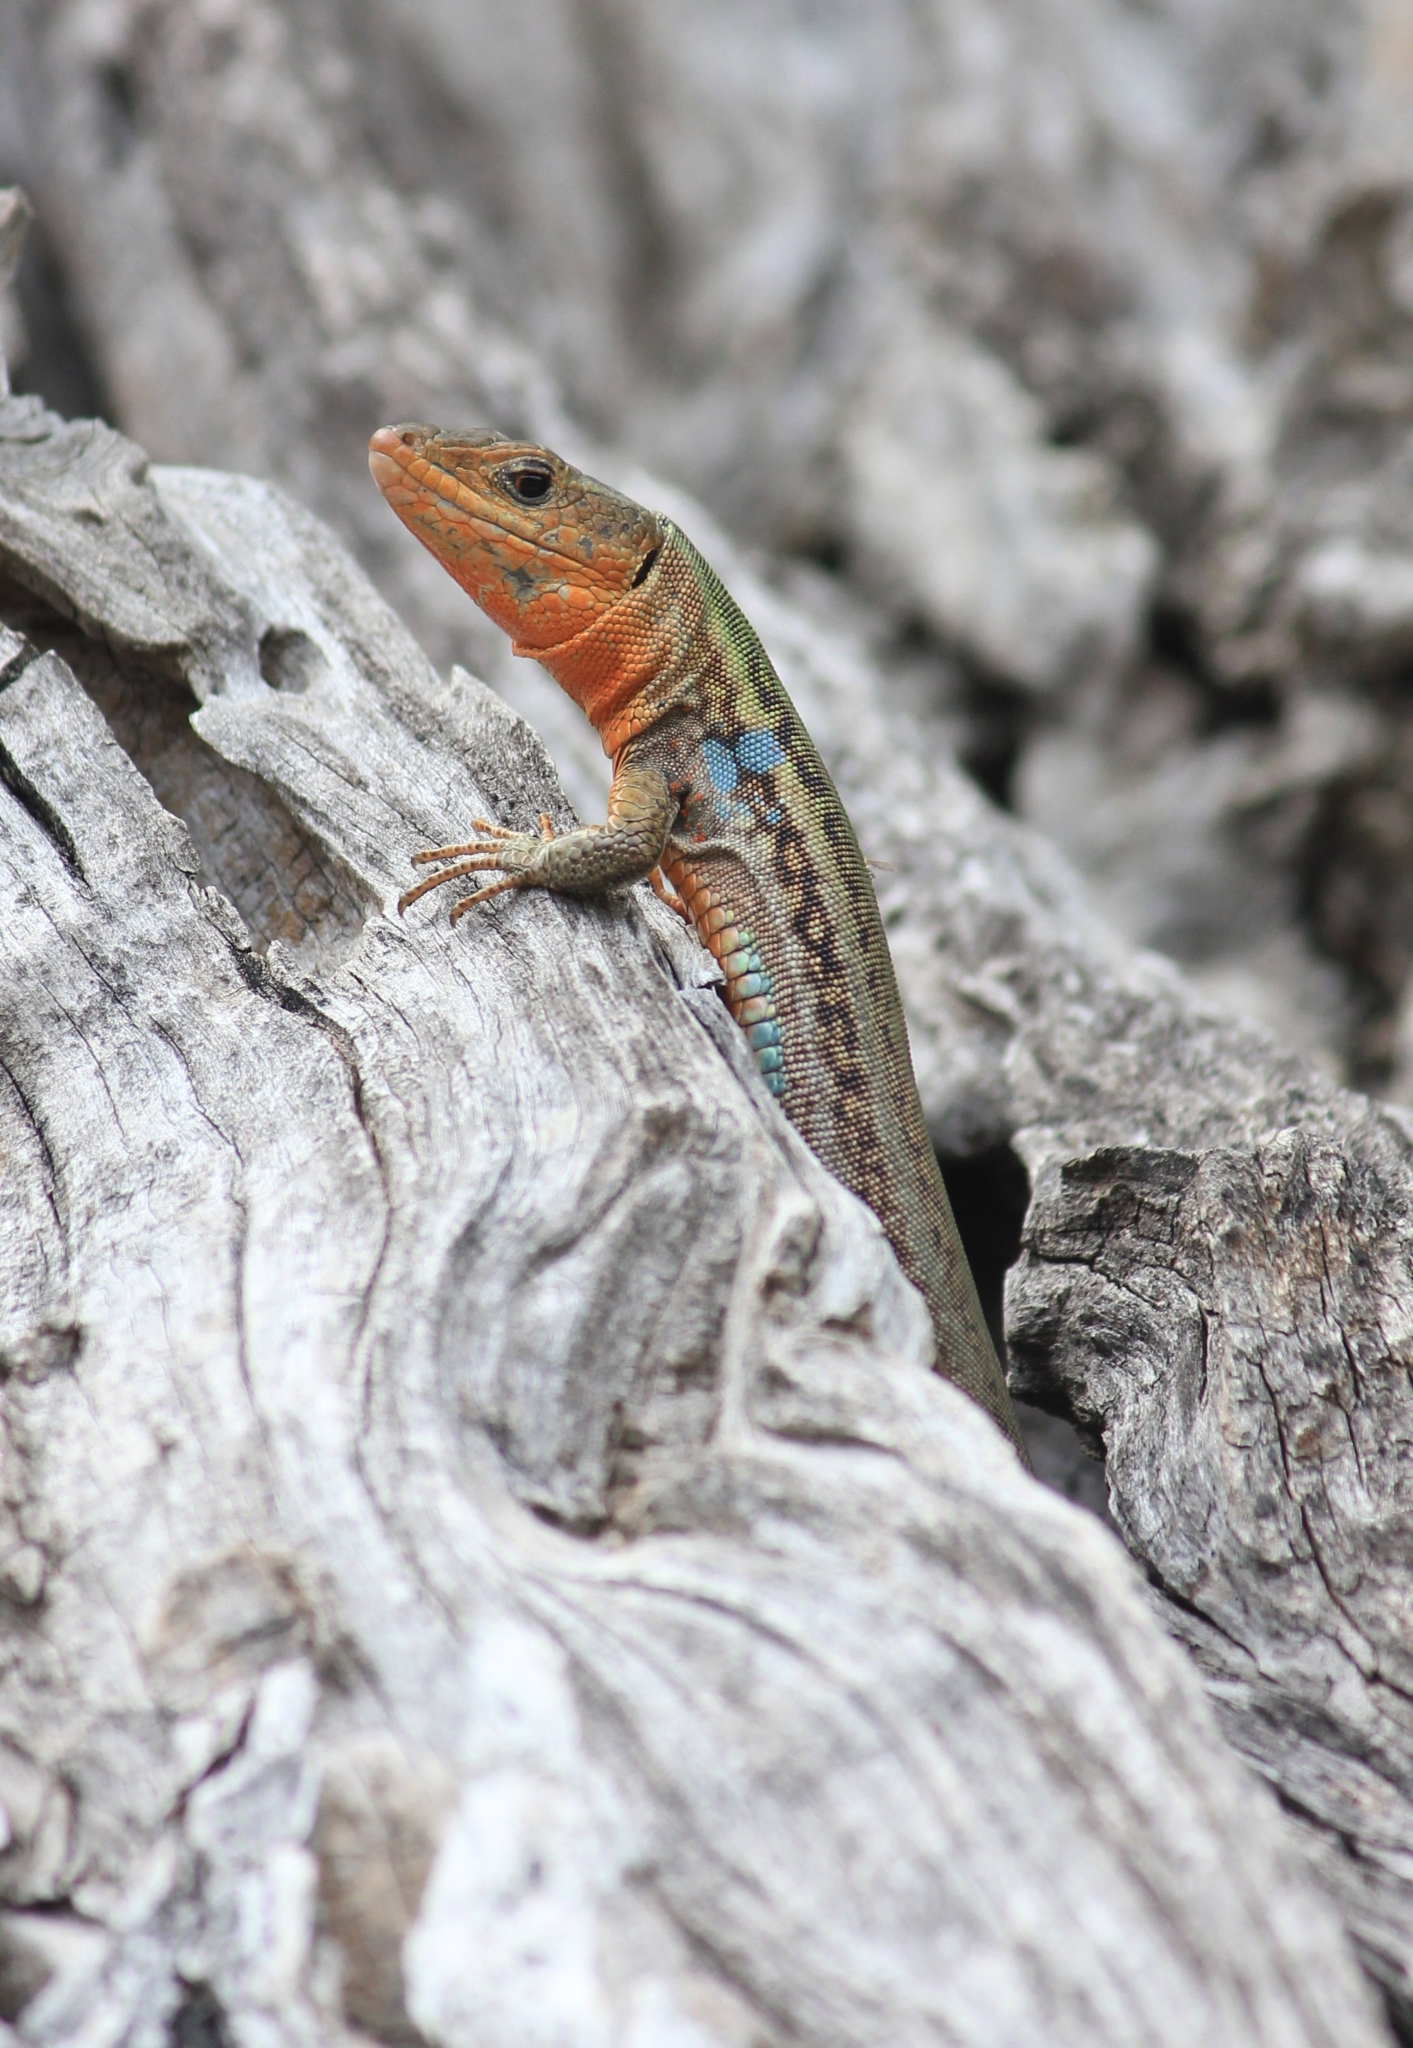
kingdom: Animalia
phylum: Chordata
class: Squamata
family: Lacertidae
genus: Podarcis
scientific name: Podarcis peloponnesiacus
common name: Peloponnese wall lizard
